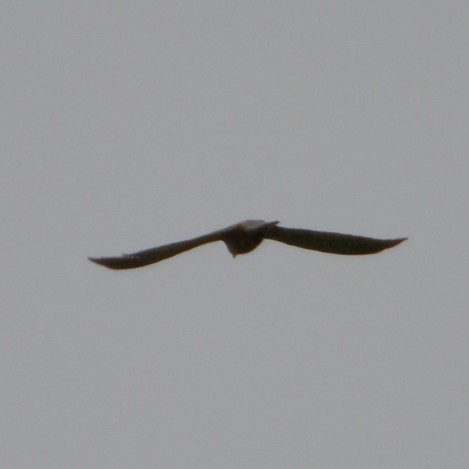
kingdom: Animalia
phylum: Chordata
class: Aves
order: Falconiformes
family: Falconidae
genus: Falco
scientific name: Falco tinnunculus
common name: Common kestrel
